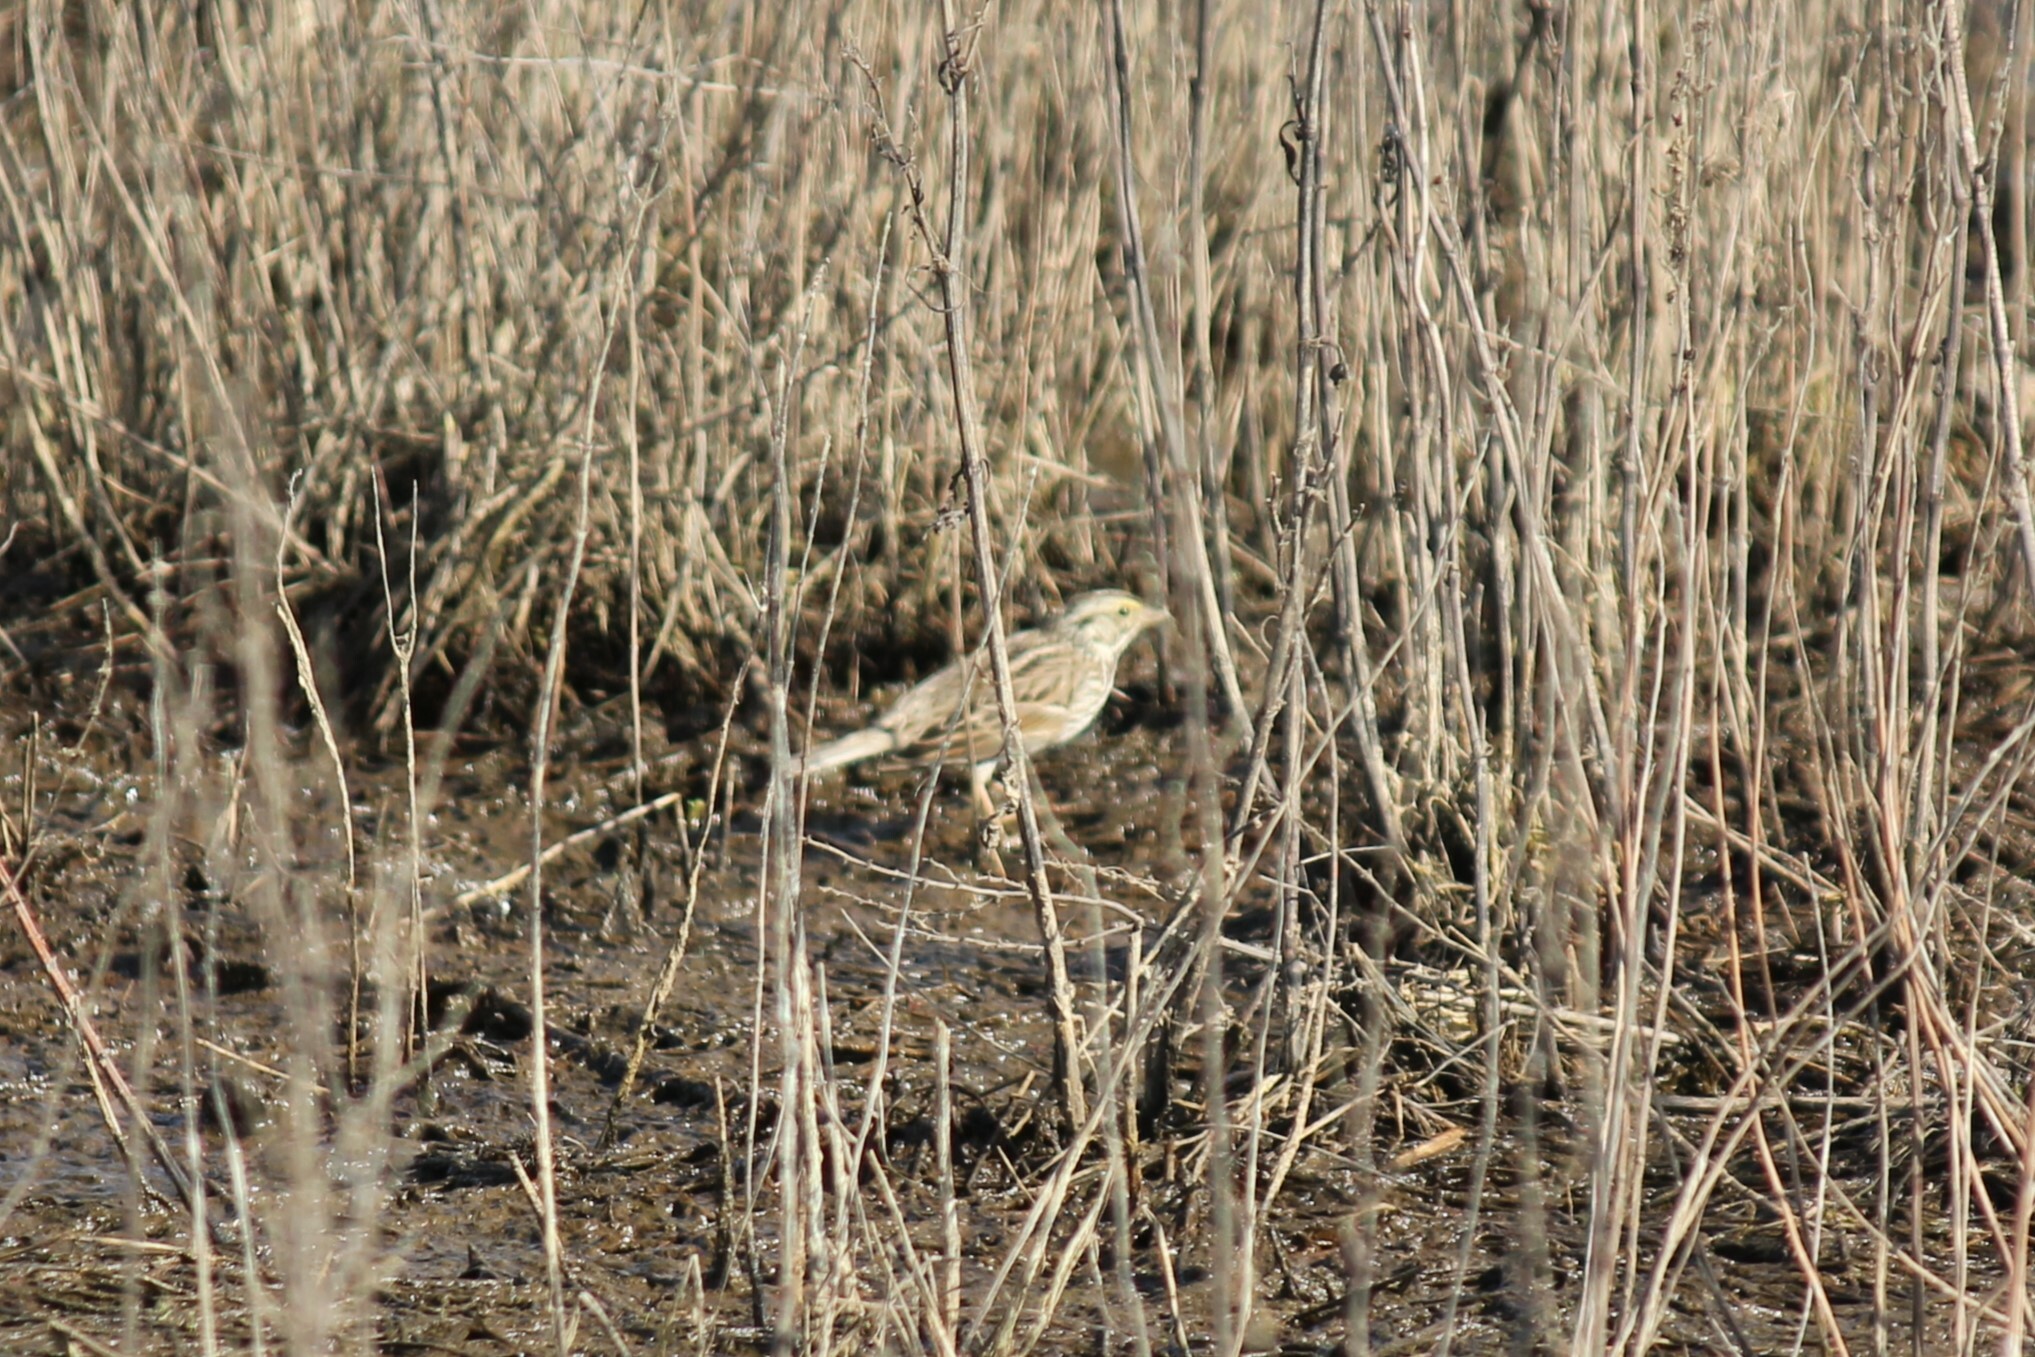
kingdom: Animalia
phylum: Chordata
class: Aves
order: Passeriformes
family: Passerellidae
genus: Passerculus
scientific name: Passerculus sandwichensis
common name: Savannah sparrow
